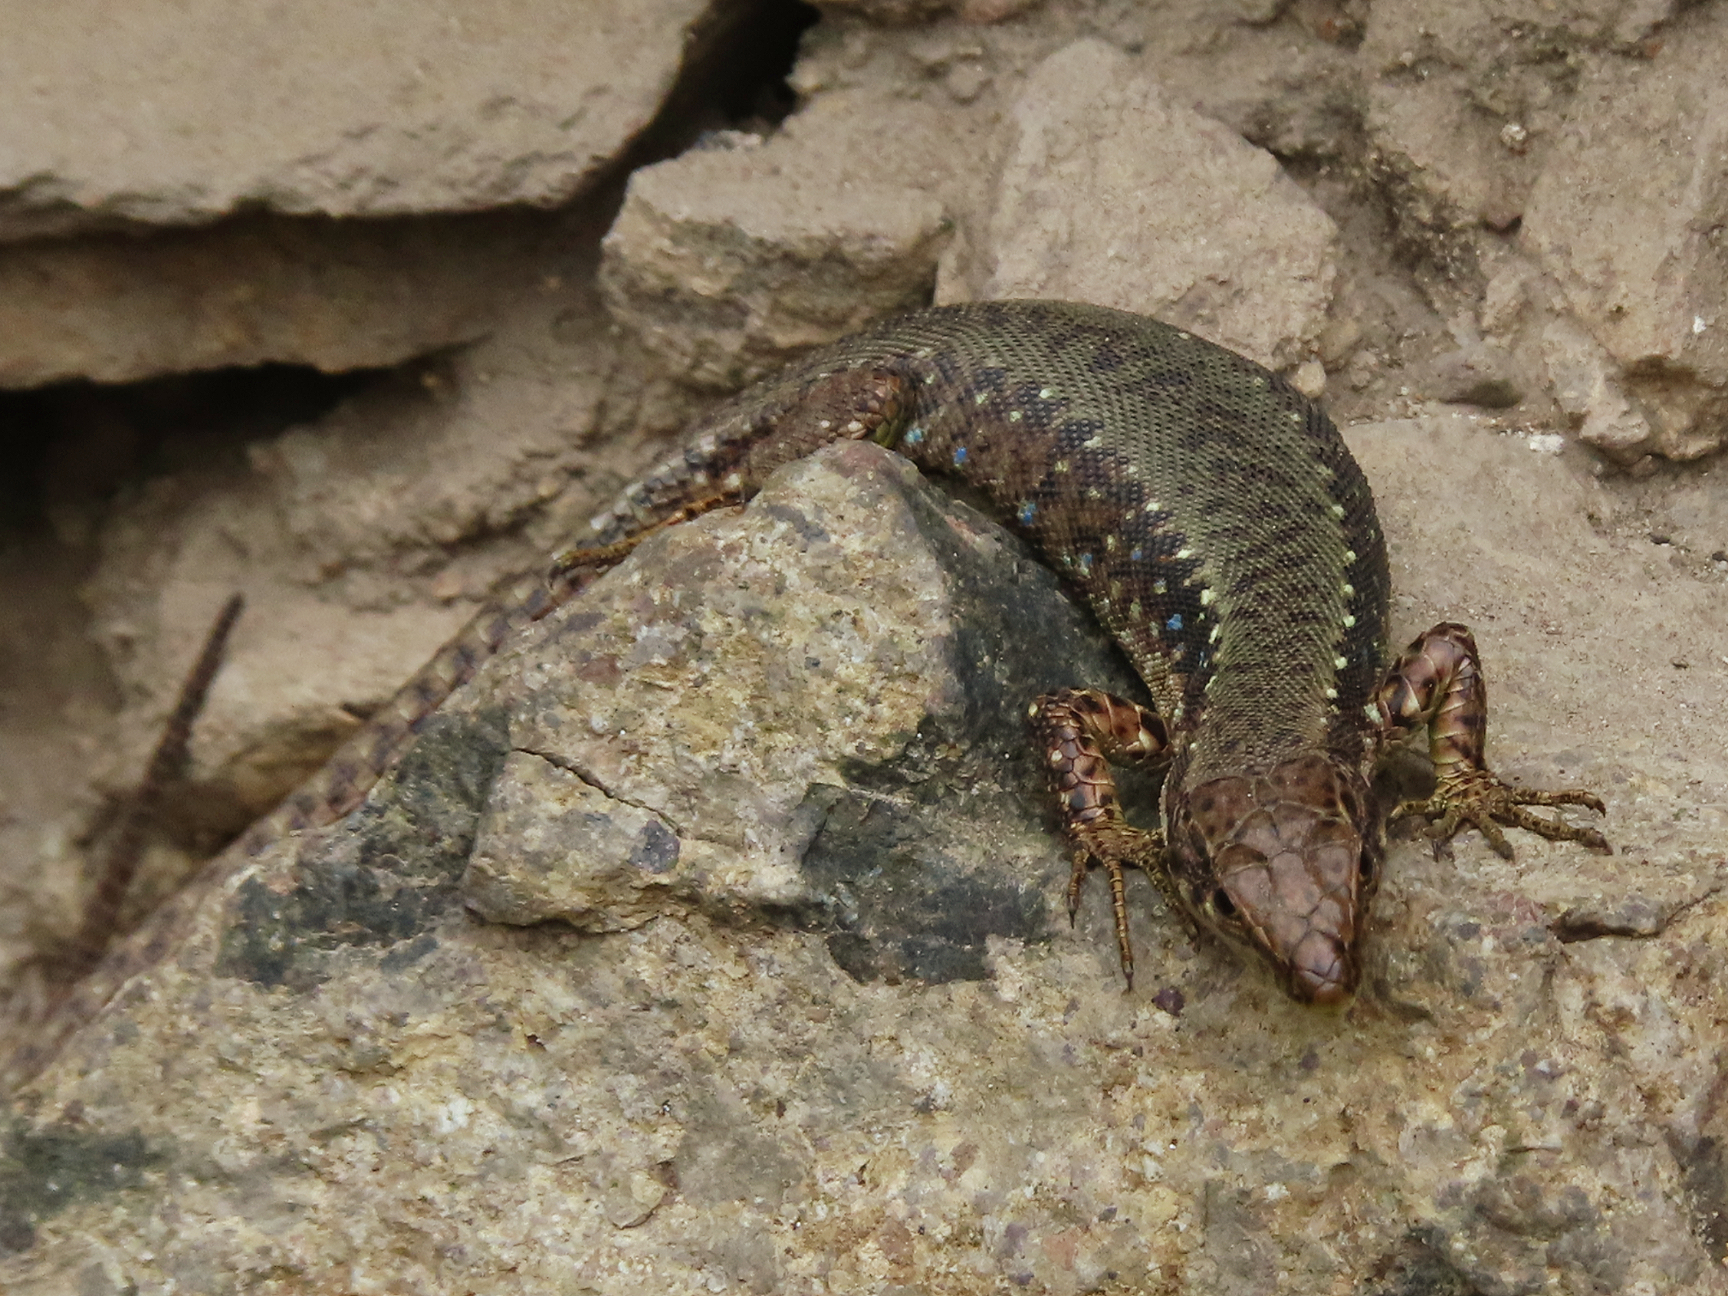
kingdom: Animalia
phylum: Chordata
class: Squamata
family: Lacertidae
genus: Darevskia
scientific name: Darevskia armeniaca
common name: Armenian lizard
